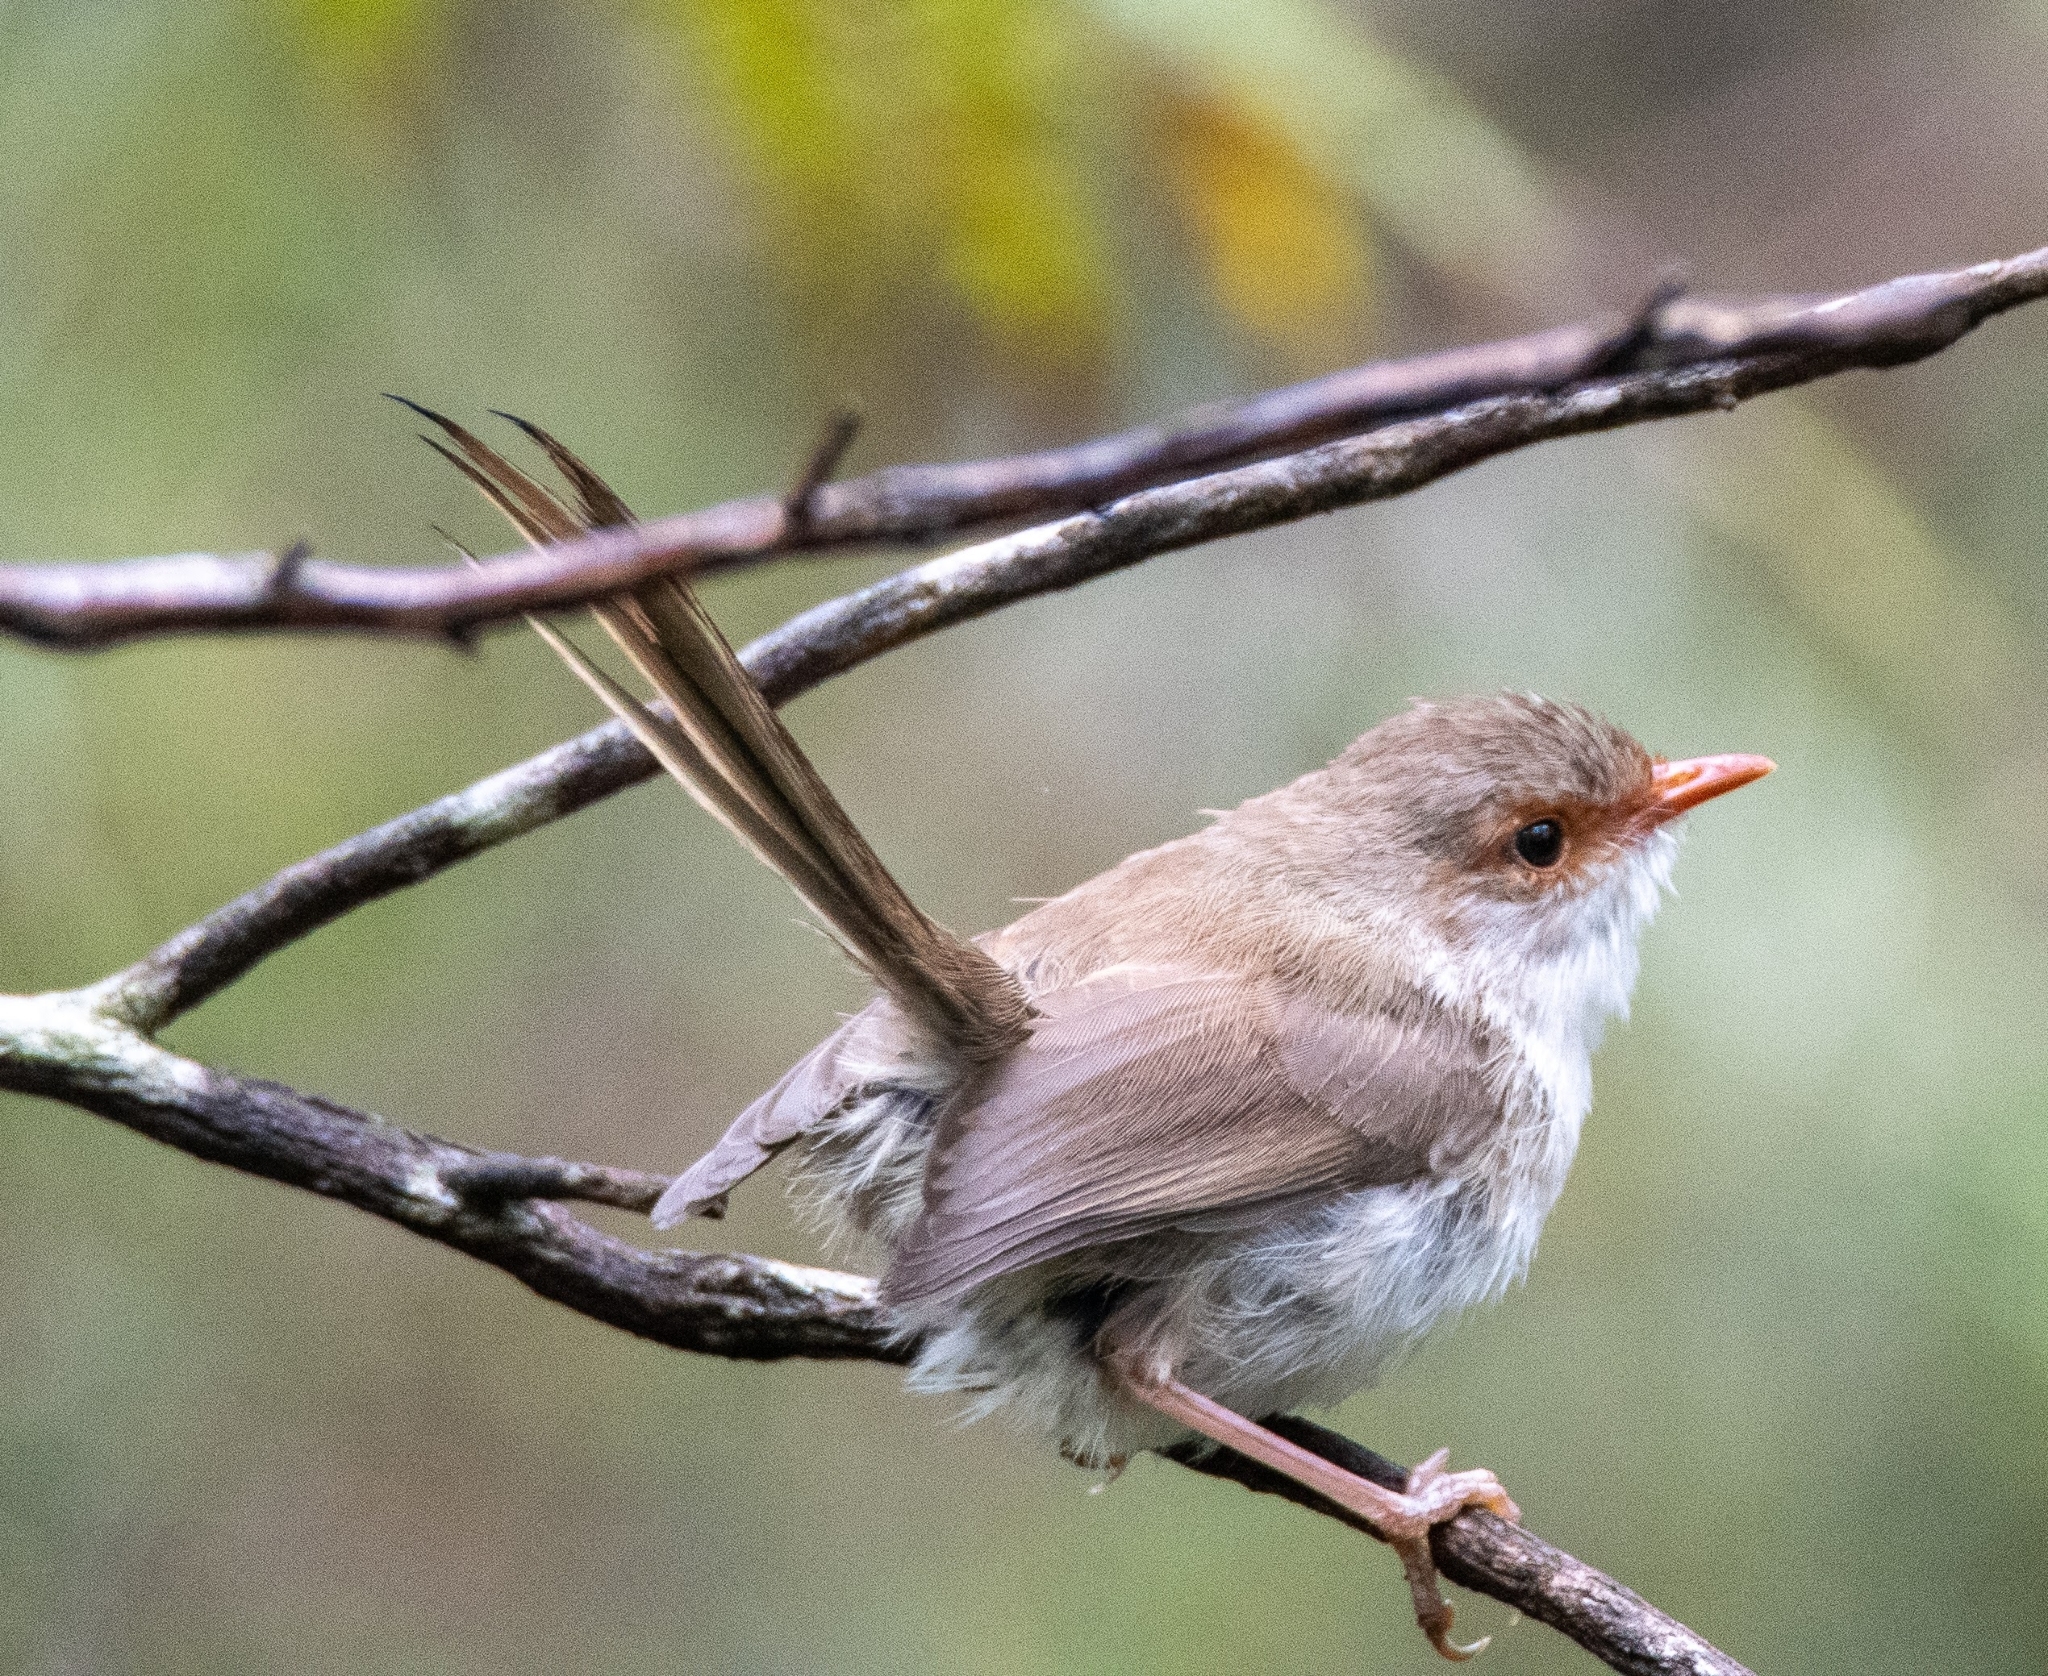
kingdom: Animalia
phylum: Chordata
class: Aves
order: Passeriformes
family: Maluridae
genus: Malurus
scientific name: Malurus cyaneus
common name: Superb fairywren
